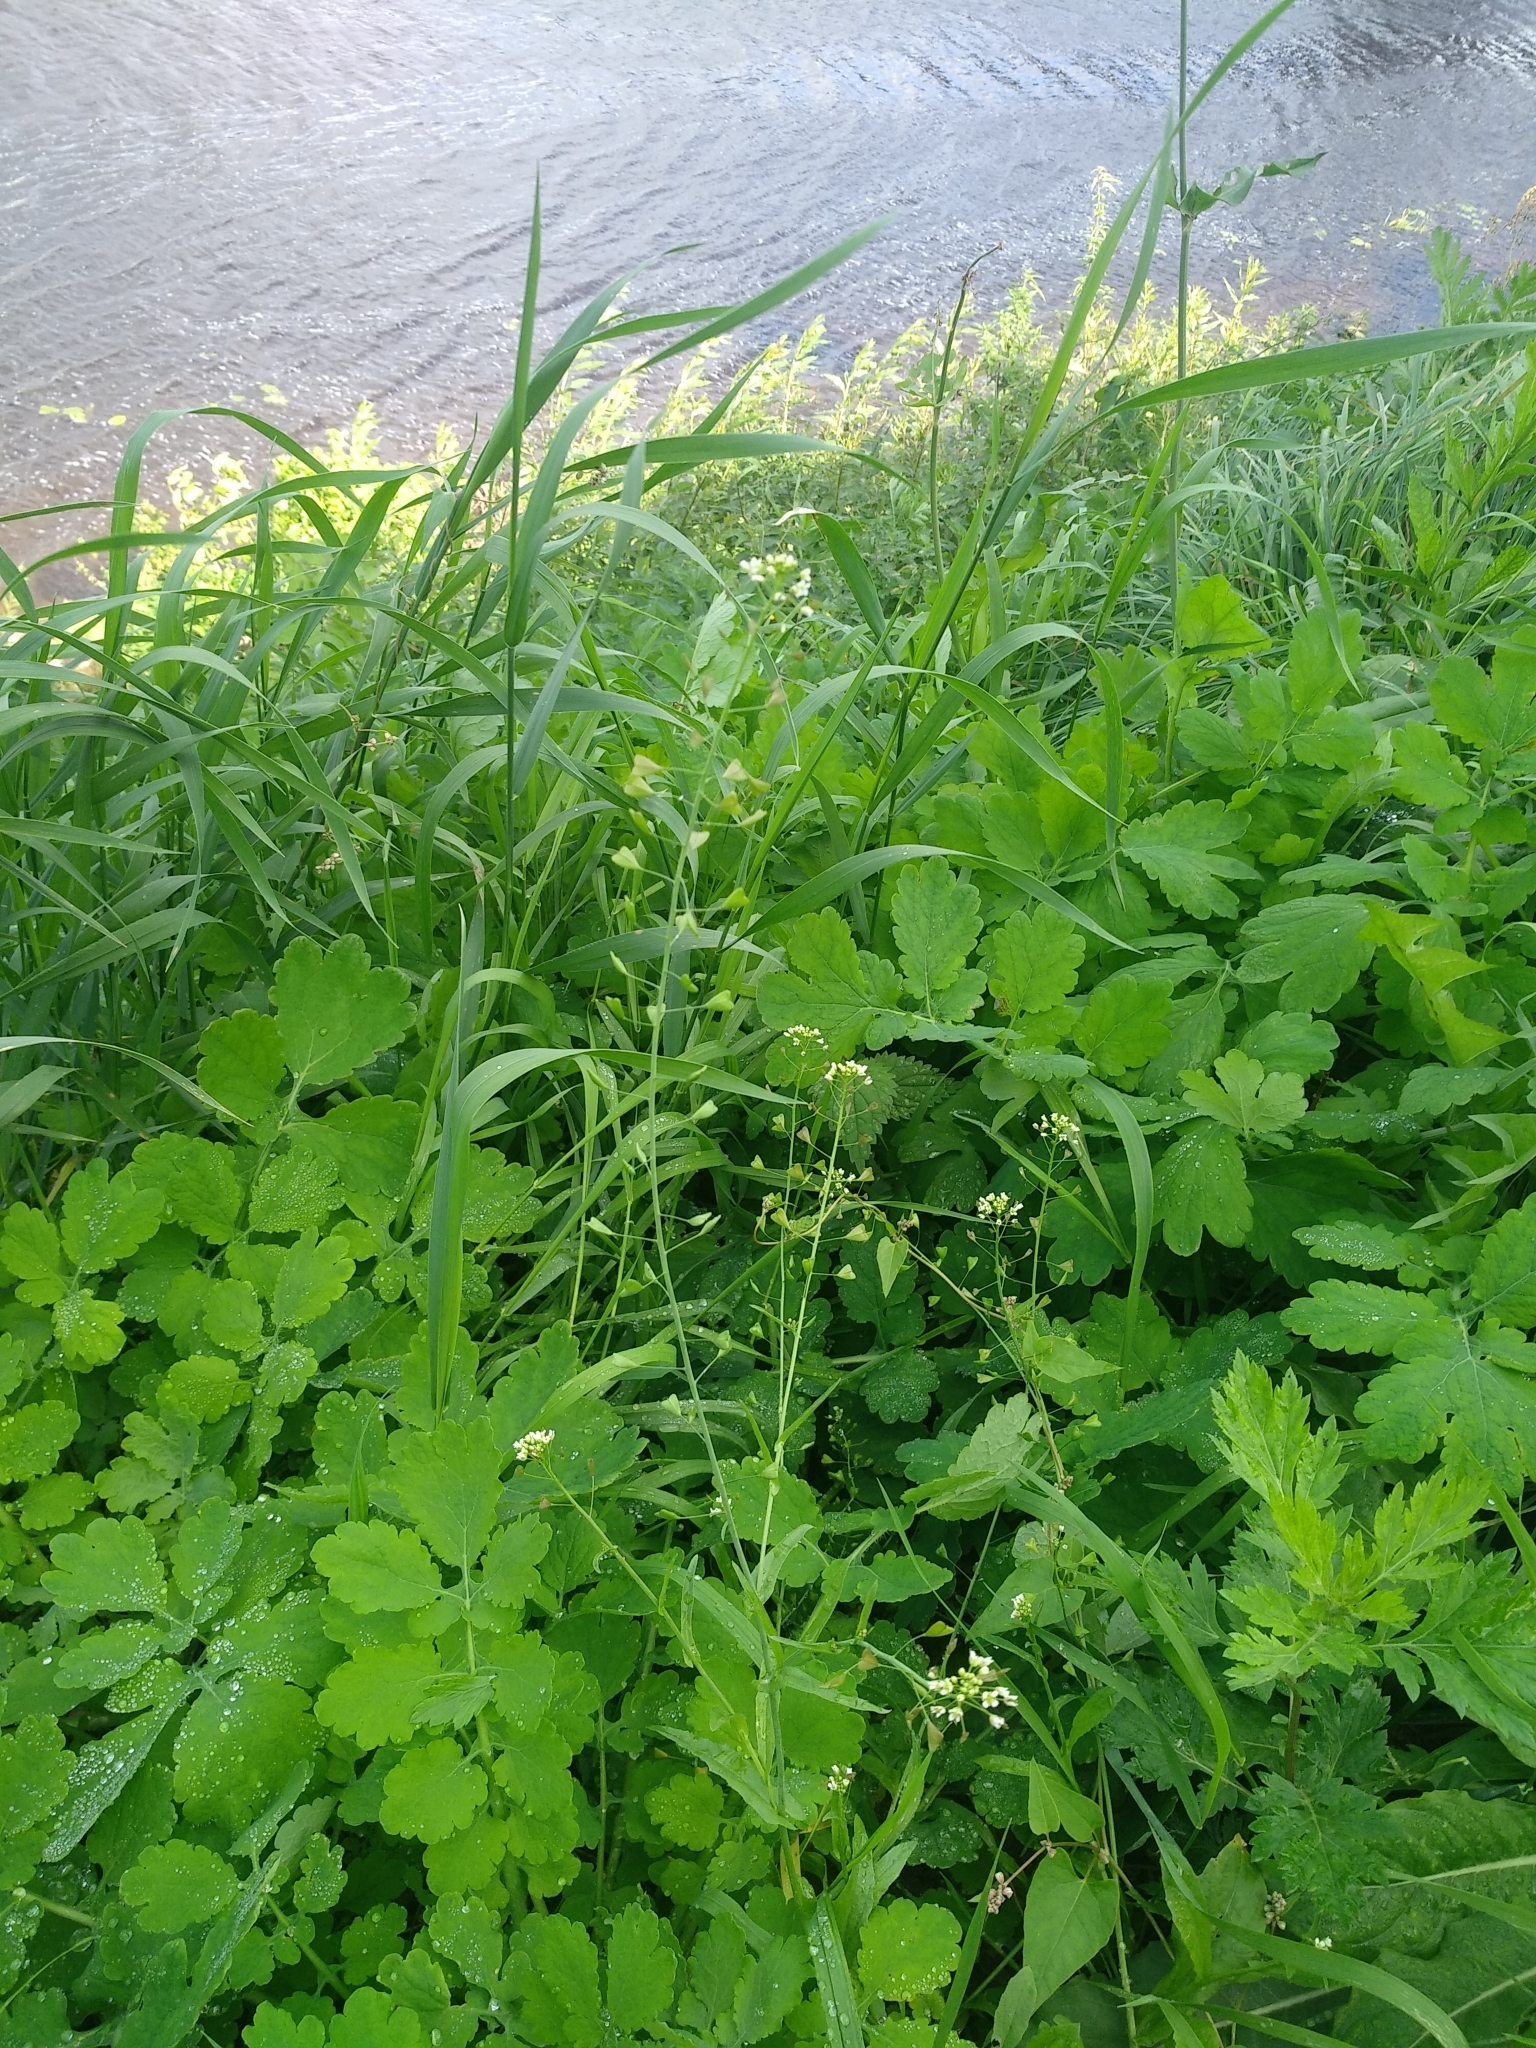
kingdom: Plantae
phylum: Tracheophyta
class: Magnoliopsida
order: Brassicales
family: Brassicaceae
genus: Capsella
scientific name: Capsella bursa-pastoris
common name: Shepherd's purse
